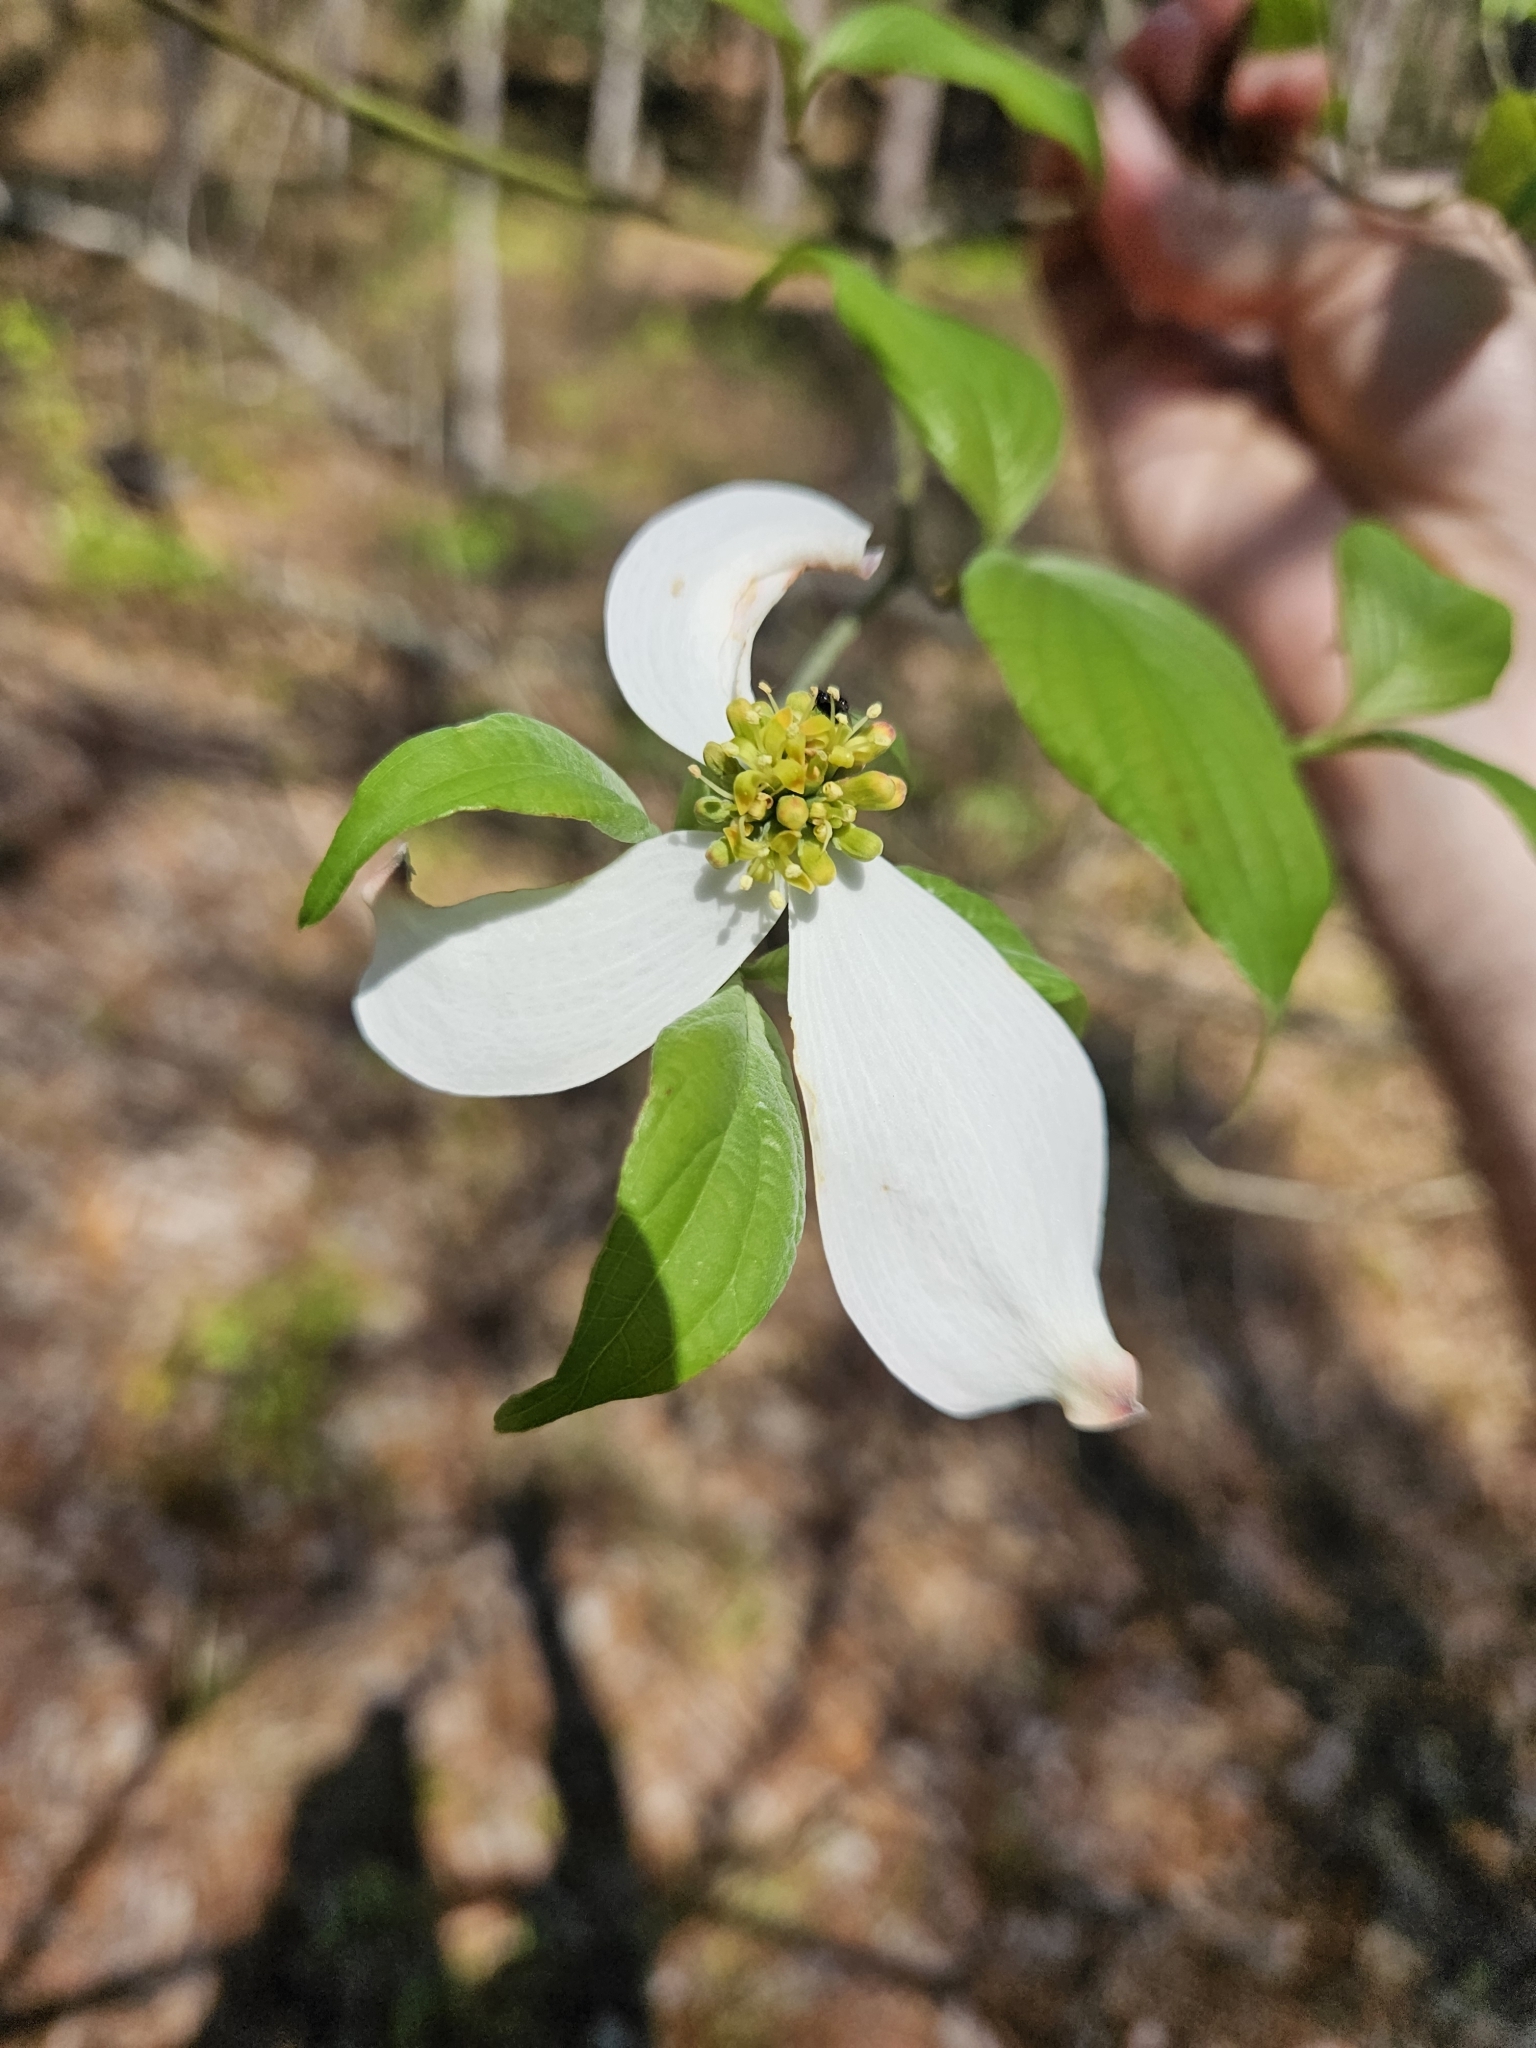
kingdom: Plantae
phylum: Tracheophyta
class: Magnoliopsida
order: Cornales
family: Cornaceae
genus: Cornus
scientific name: Cornus florida
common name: Flowering dogwood
